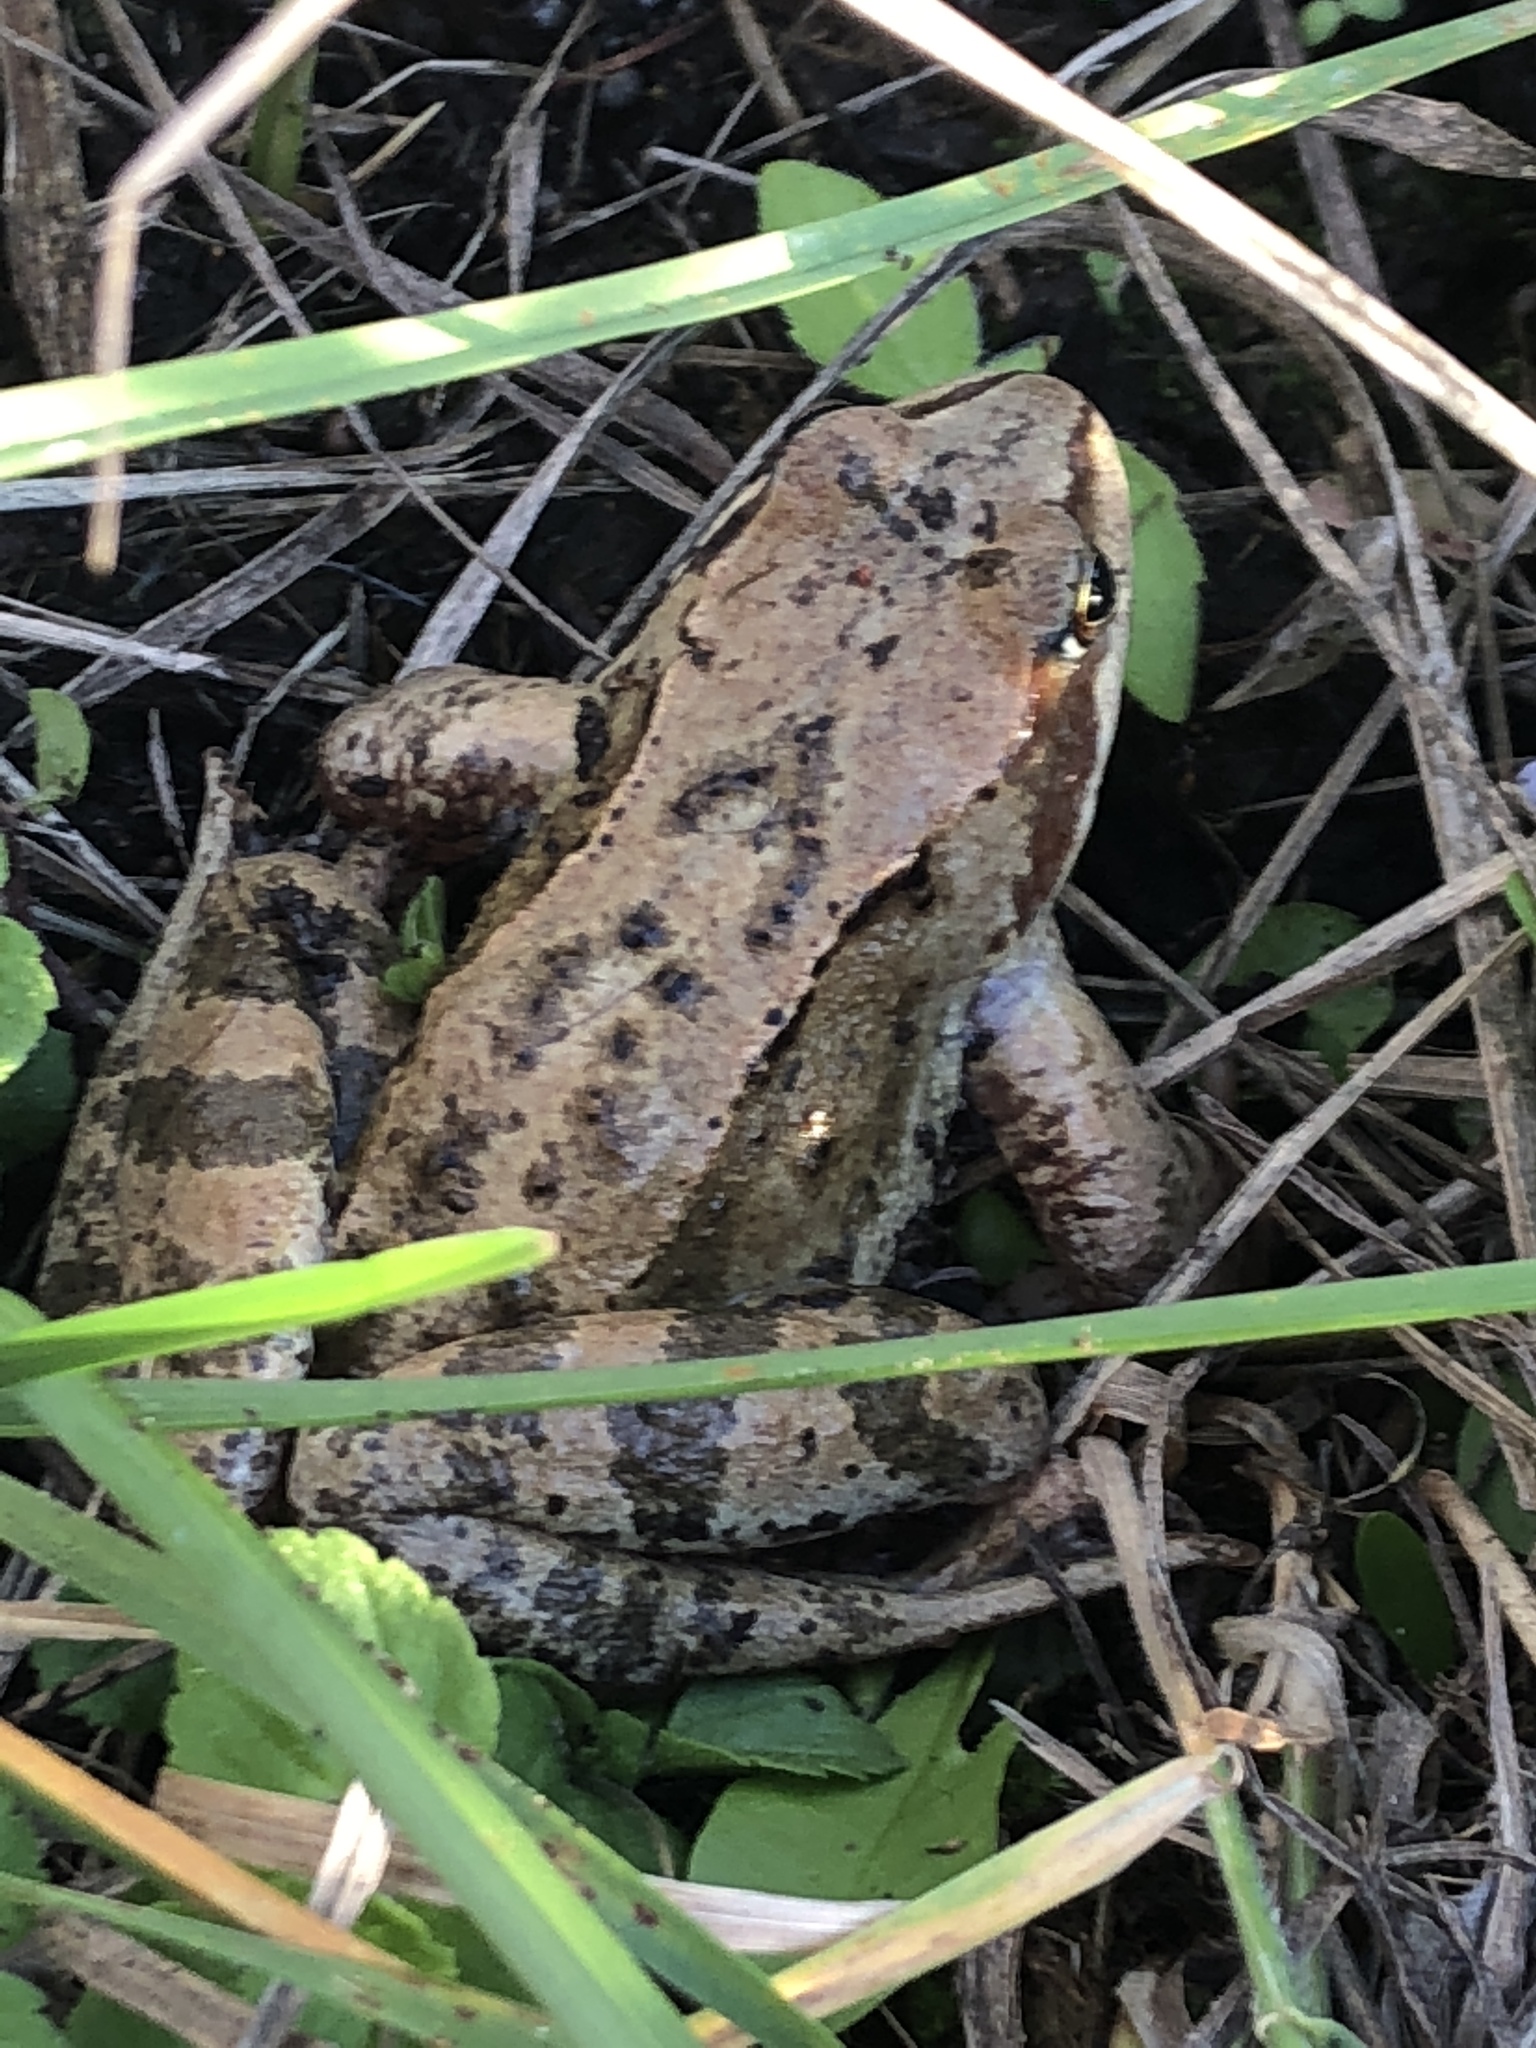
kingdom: Animalia
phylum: Chordata
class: Amphibia
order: Anura
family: Ranidae
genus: Rana
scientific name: Rana temporaria
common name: Common frog
